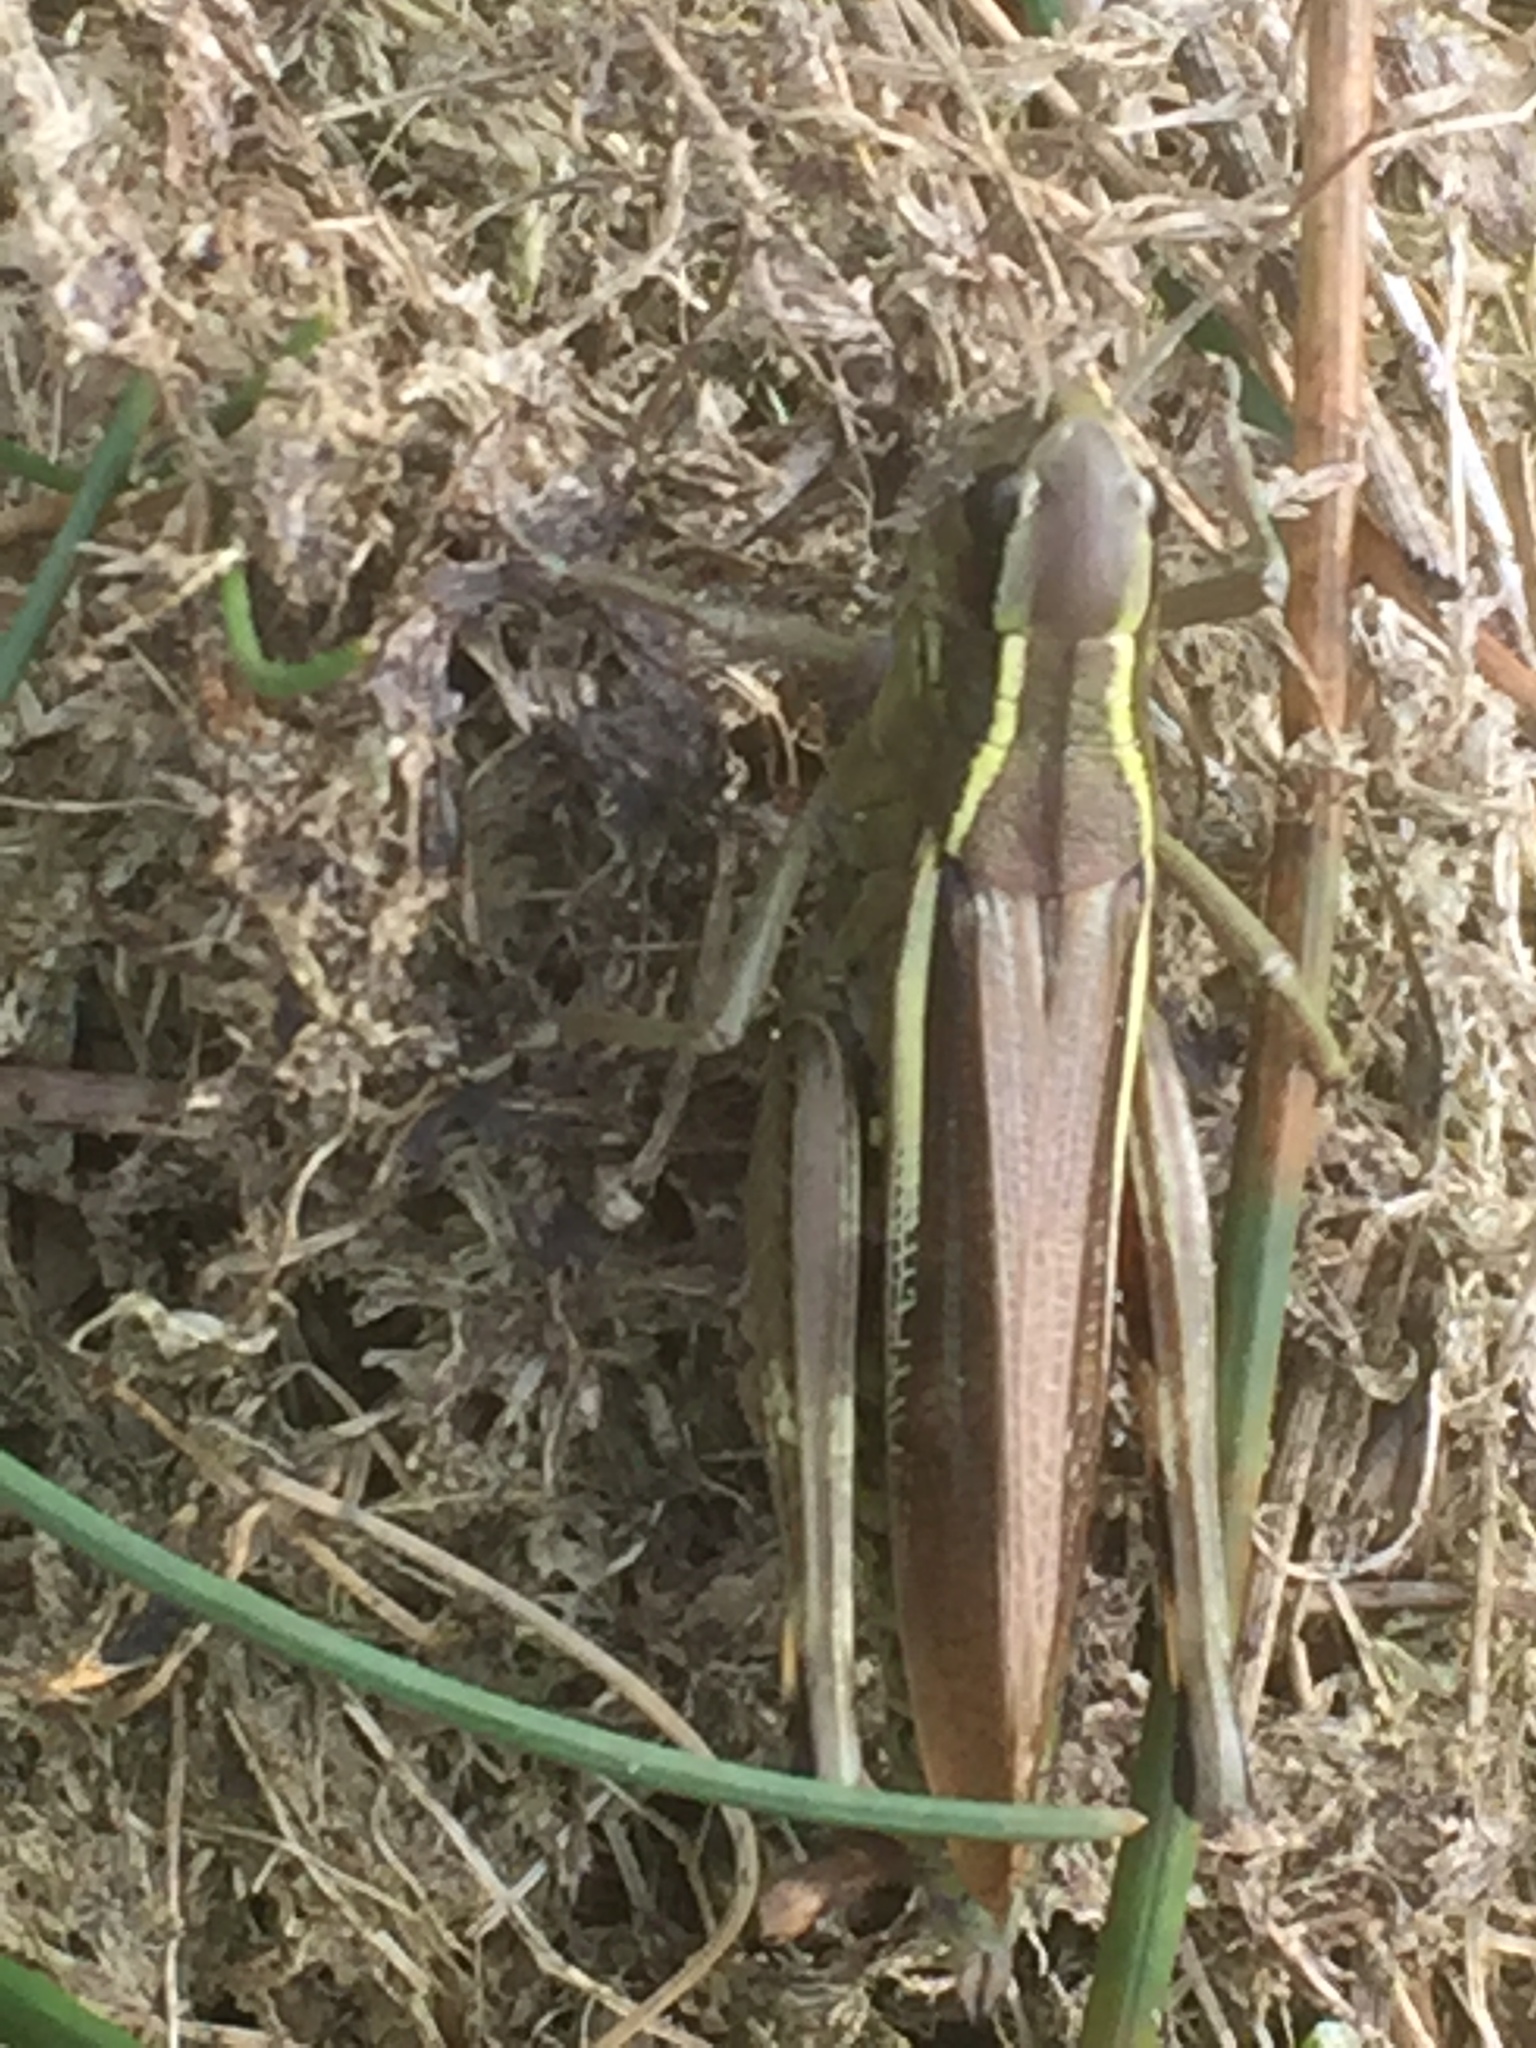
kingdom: Animalia
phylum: Arthropoda
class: Insecta
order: Orthoptera
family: Acrididae
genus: Stethophyma
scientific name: Stethophyma grossum
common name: Large marsh grasshopper
